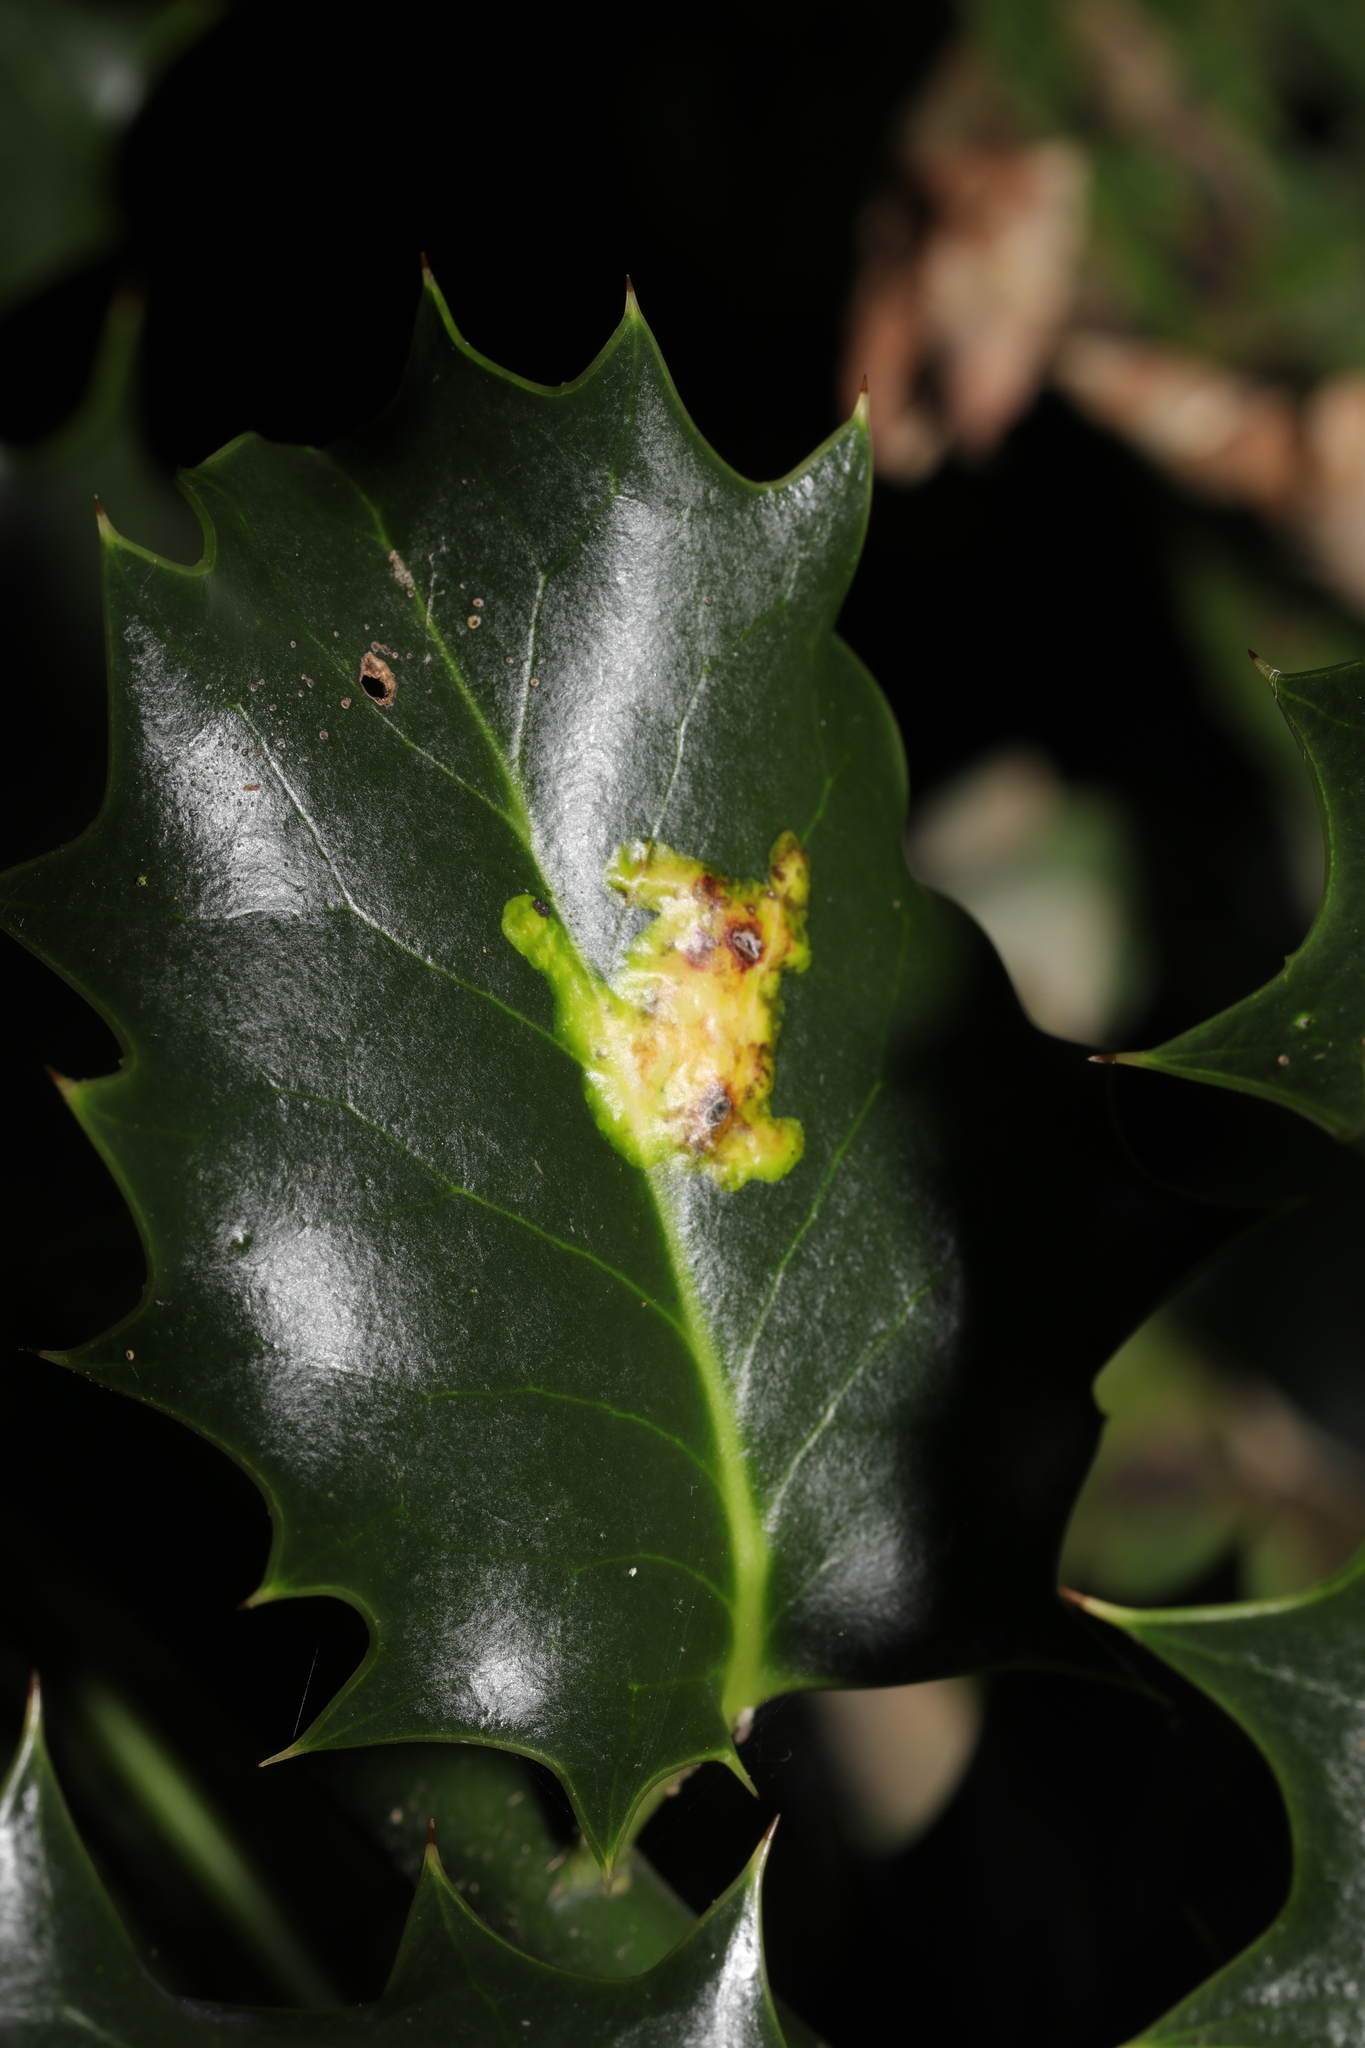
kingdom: Animalia
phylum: Arthropoda
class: Insecta
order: Diptera
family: Agromyzidae
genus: Phytomyza
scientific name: Phytomyza ilicis
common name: Holly leafminer
